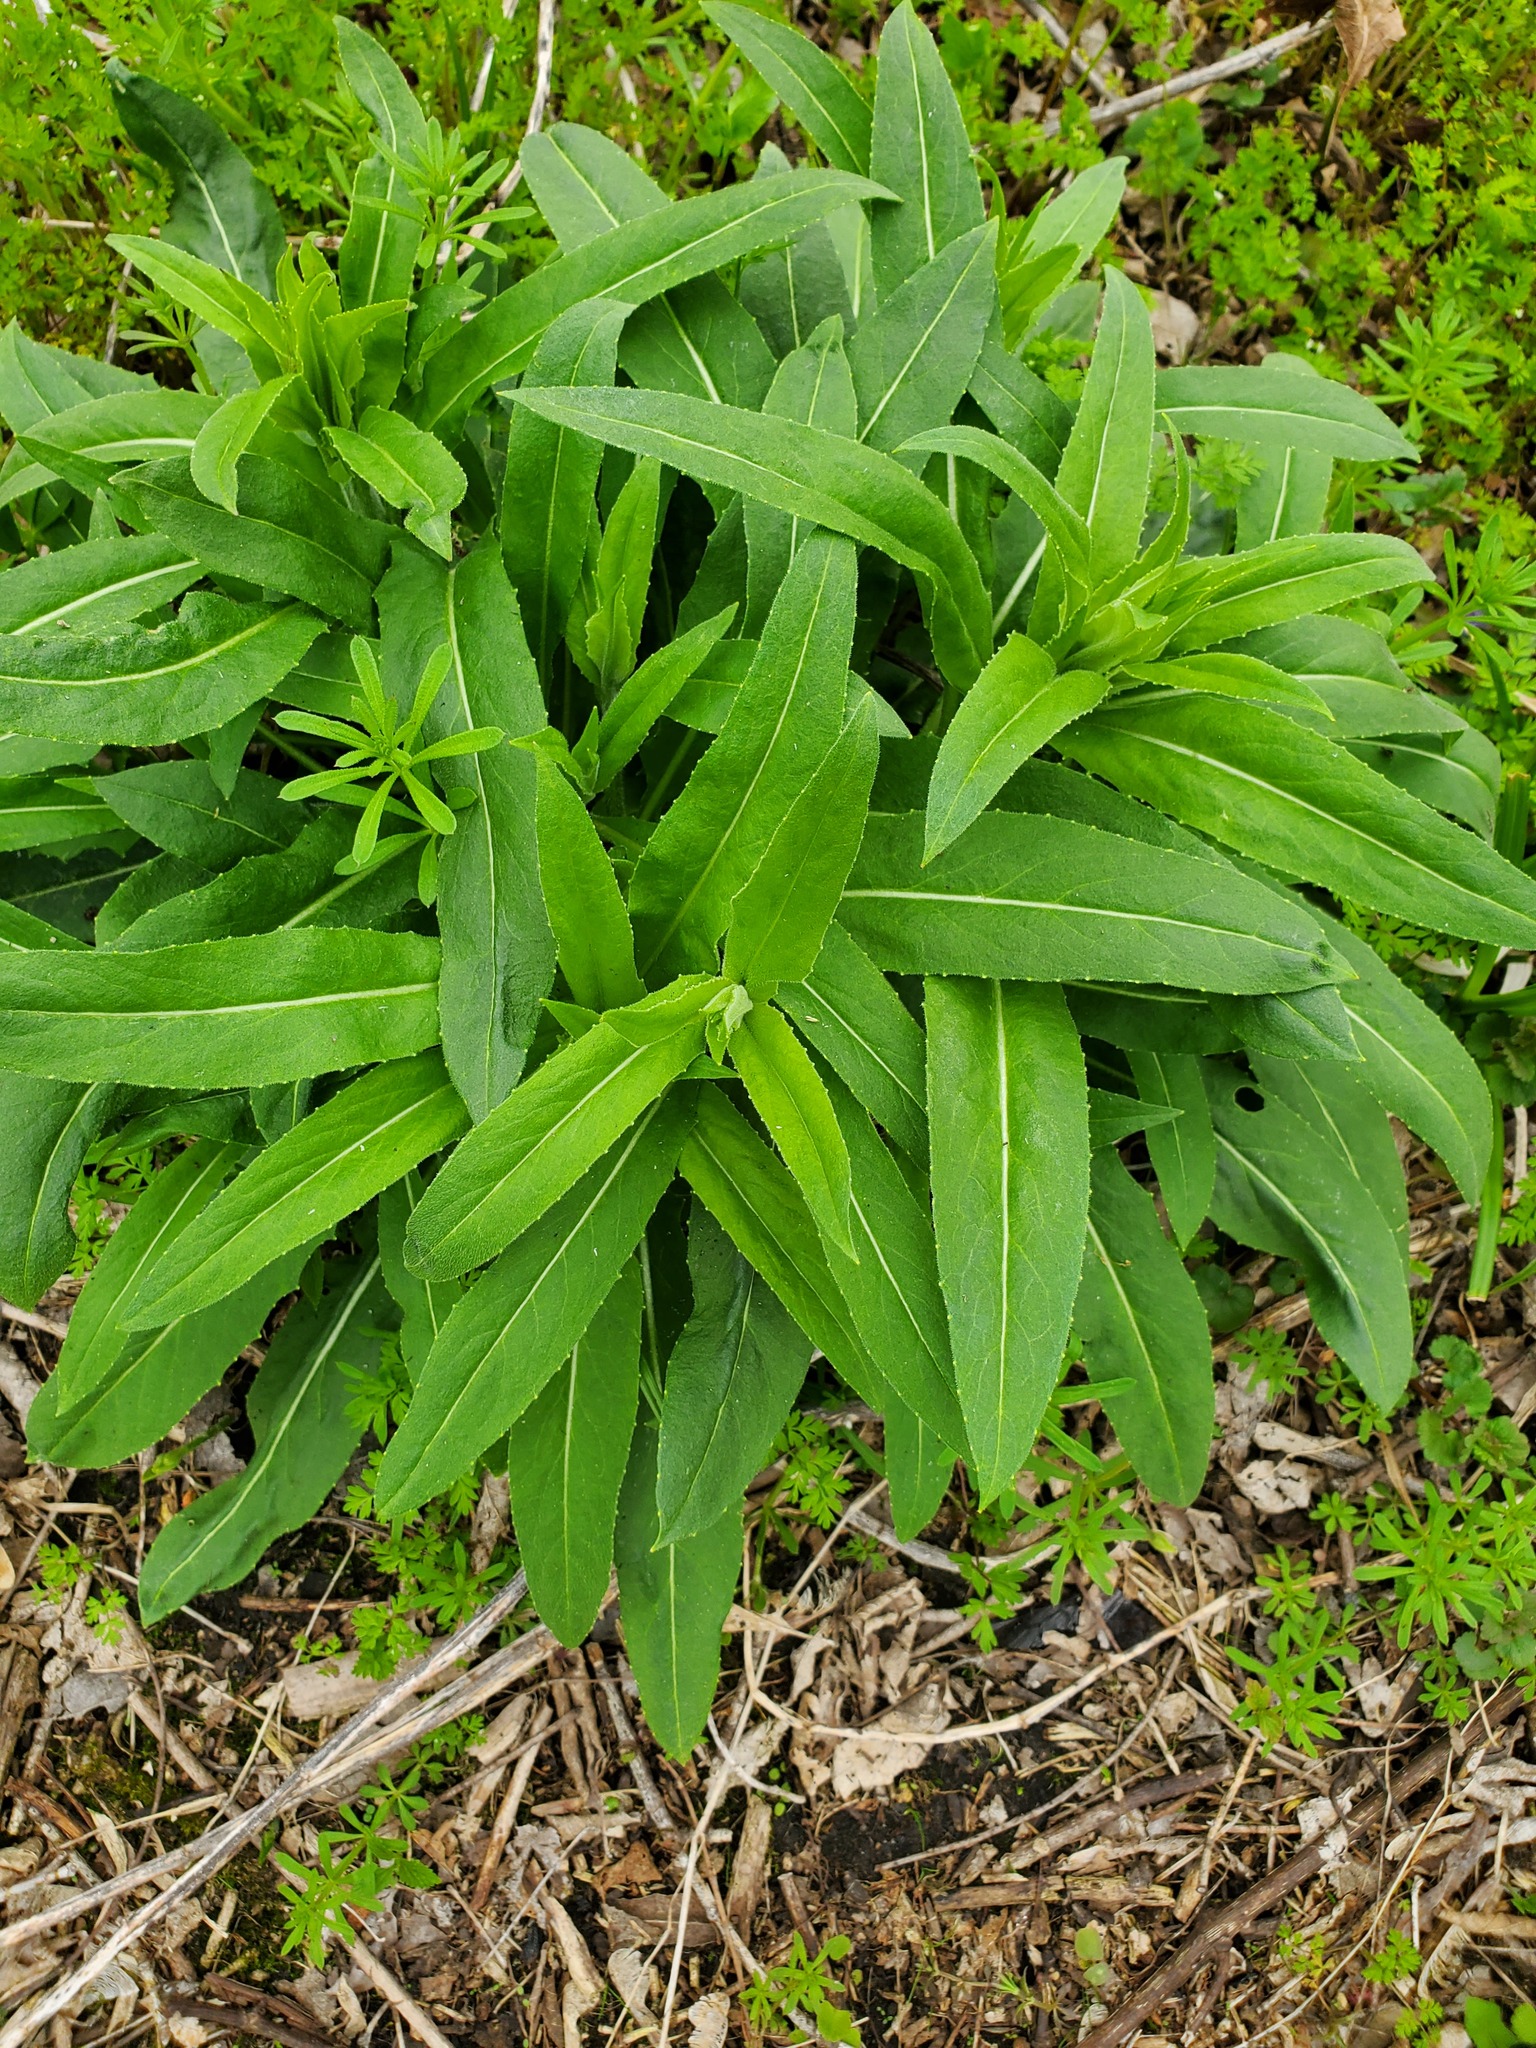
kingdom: Plantae
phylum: Tracheophyta
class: Magnoliopsida
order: Brassicales
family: Brassicaceae
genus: Hesperis
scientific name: Hesperis matronalis
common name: Dame's-violet
